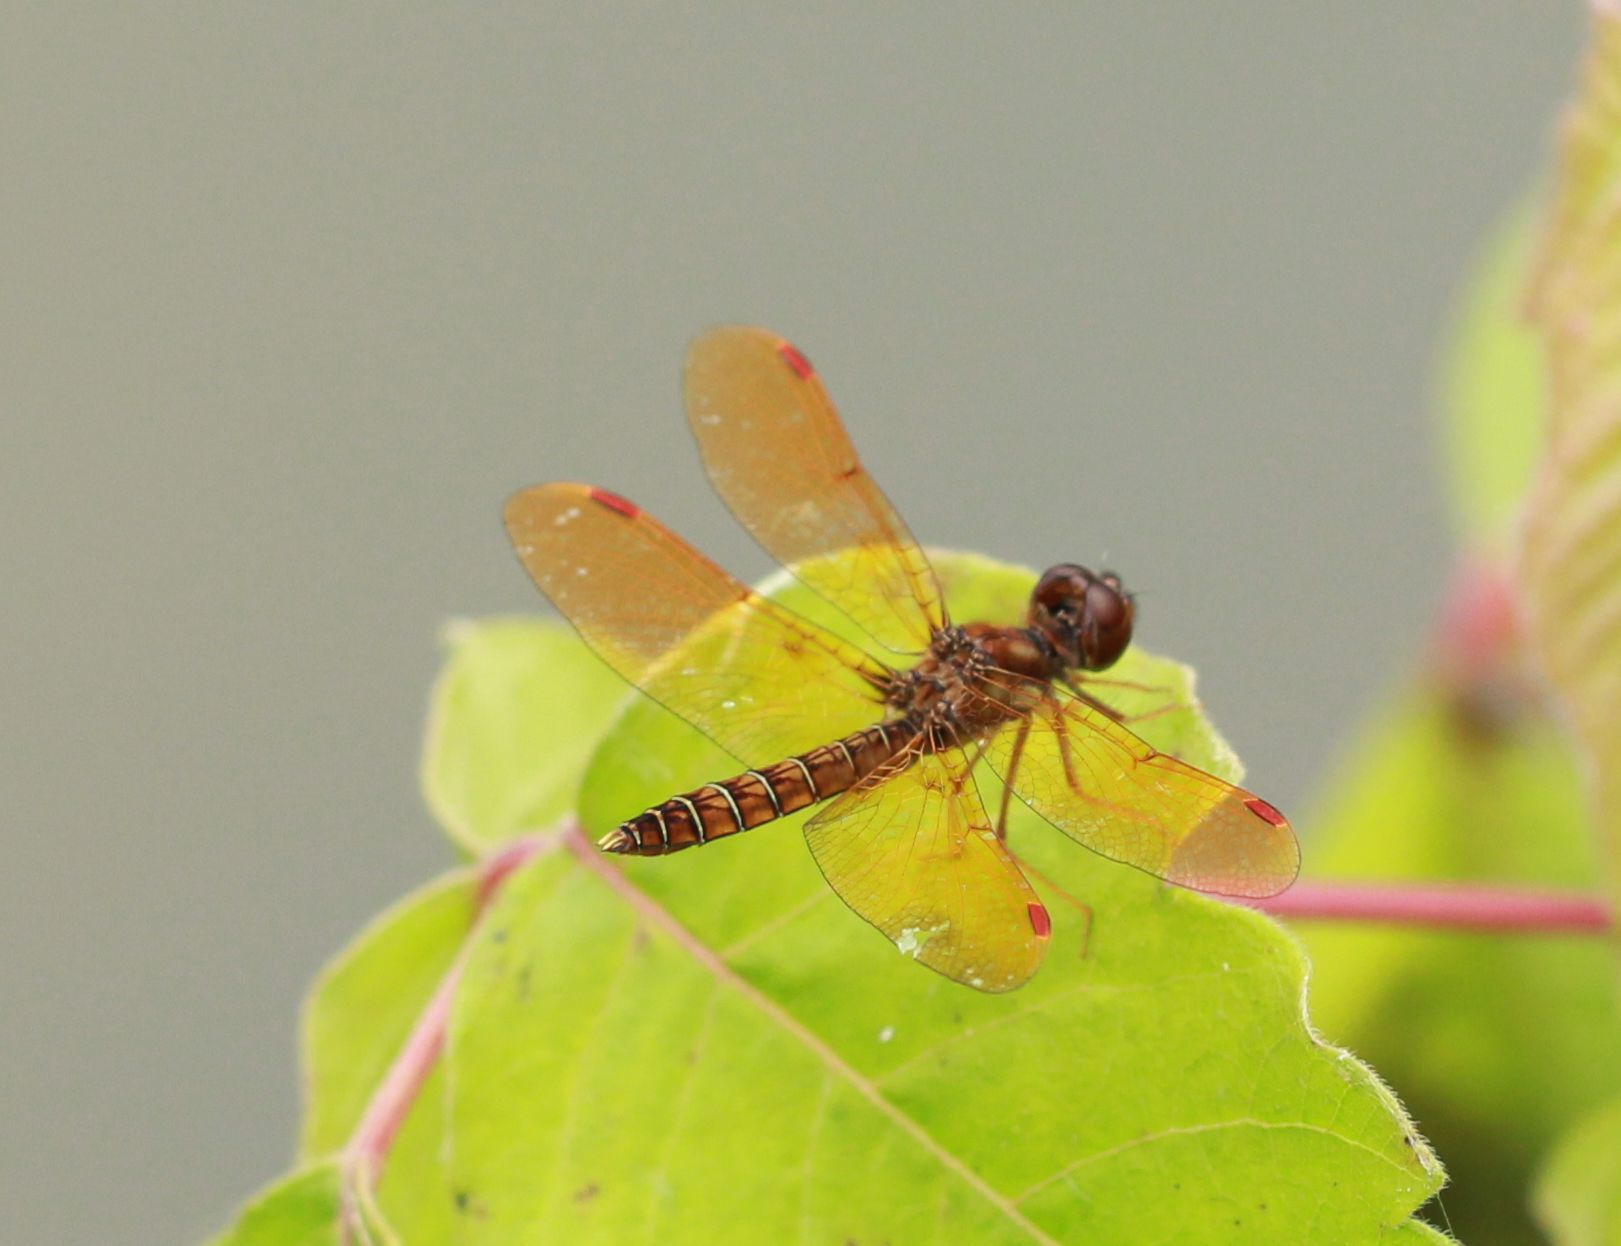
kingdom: Animalia
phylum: Arthropoda
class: Insecta
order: Odonata
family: Libellulidae
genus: Perithemis
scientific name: Perithemis tenera
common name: Eastern amberwing
